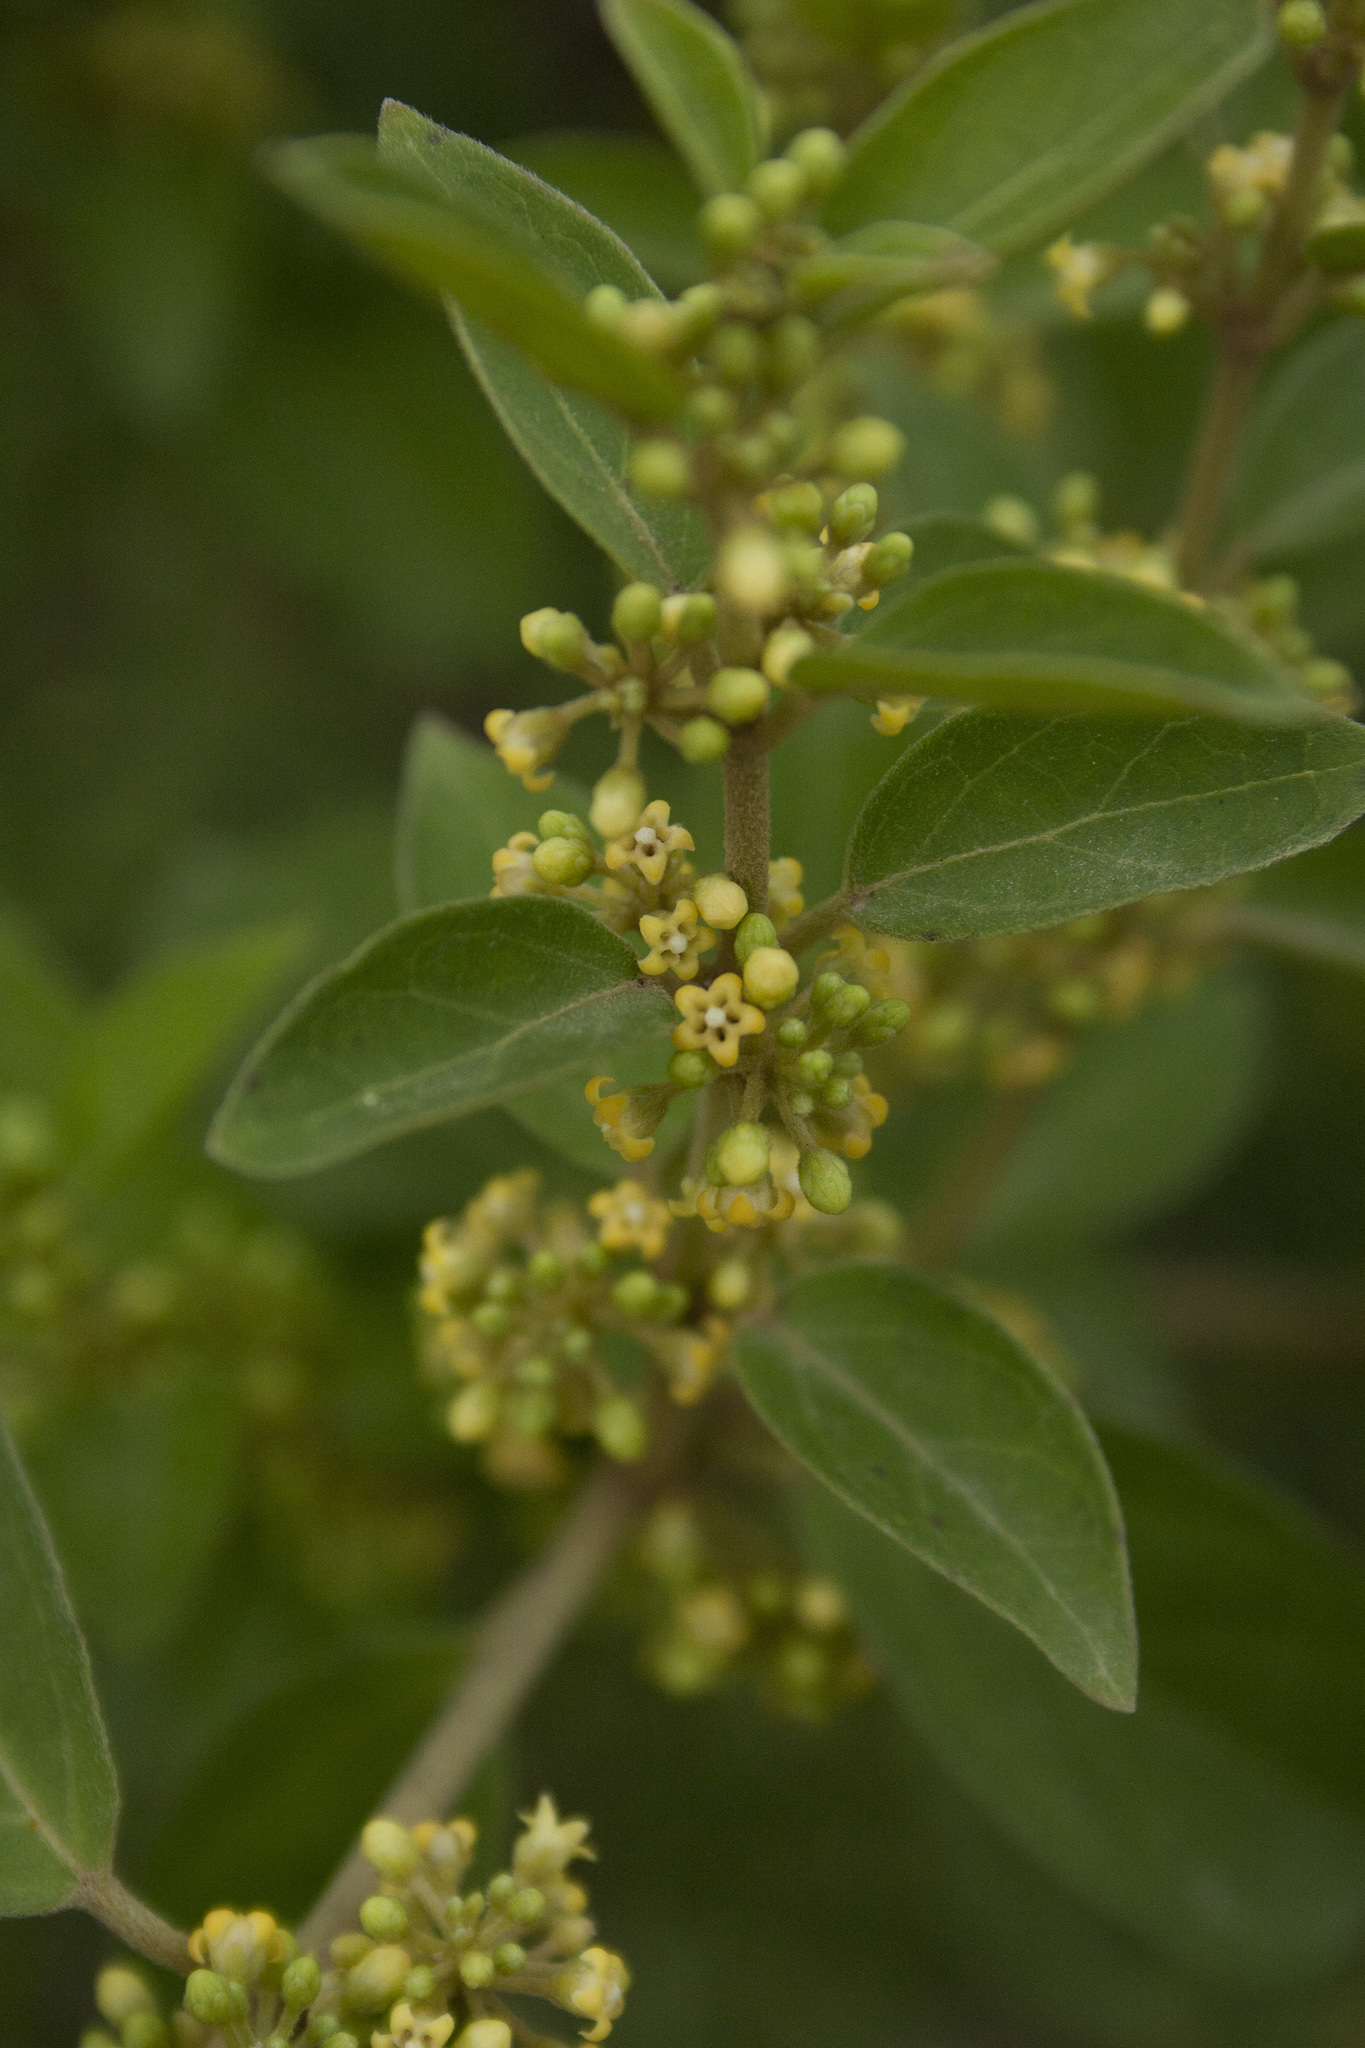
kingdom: Plantae
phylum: Tracheophyta
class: Magnoliopsida
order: Gentianales
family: Apocynaceae
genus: Gymnema
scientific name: Gymnema sylvestre
